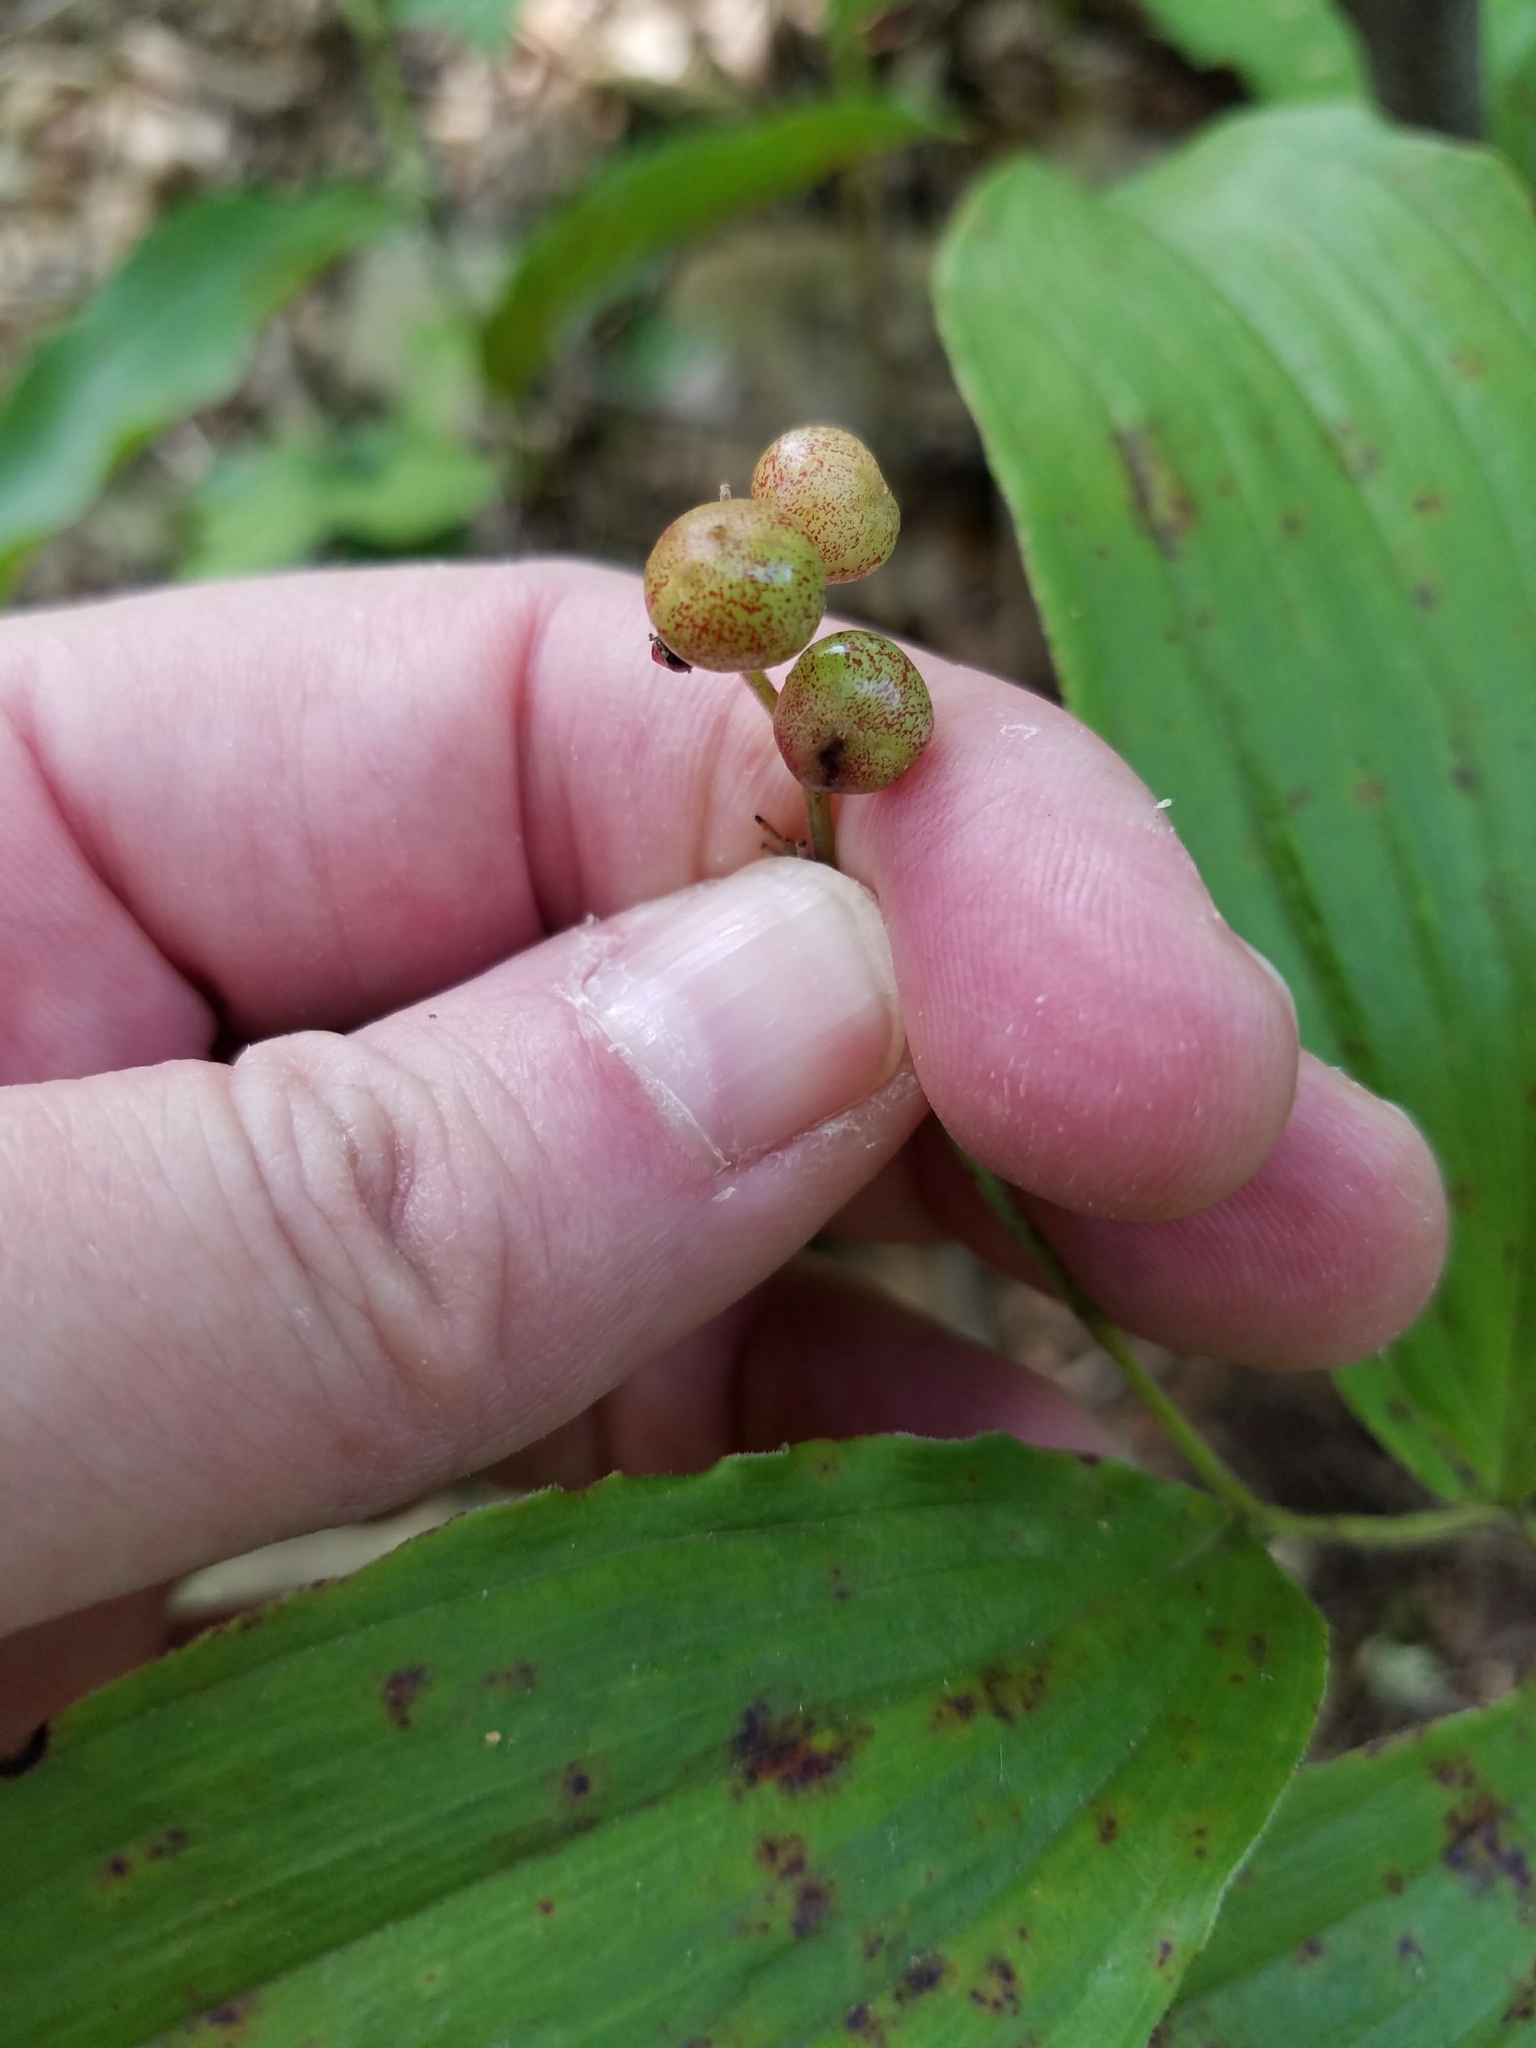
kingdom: Plantae
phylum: Tracheophyta
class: Liliopsida
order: Asparagales
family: Asparagaceae
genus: Maianthemum
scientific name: Maianthemum racemosum
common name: False spikenard
